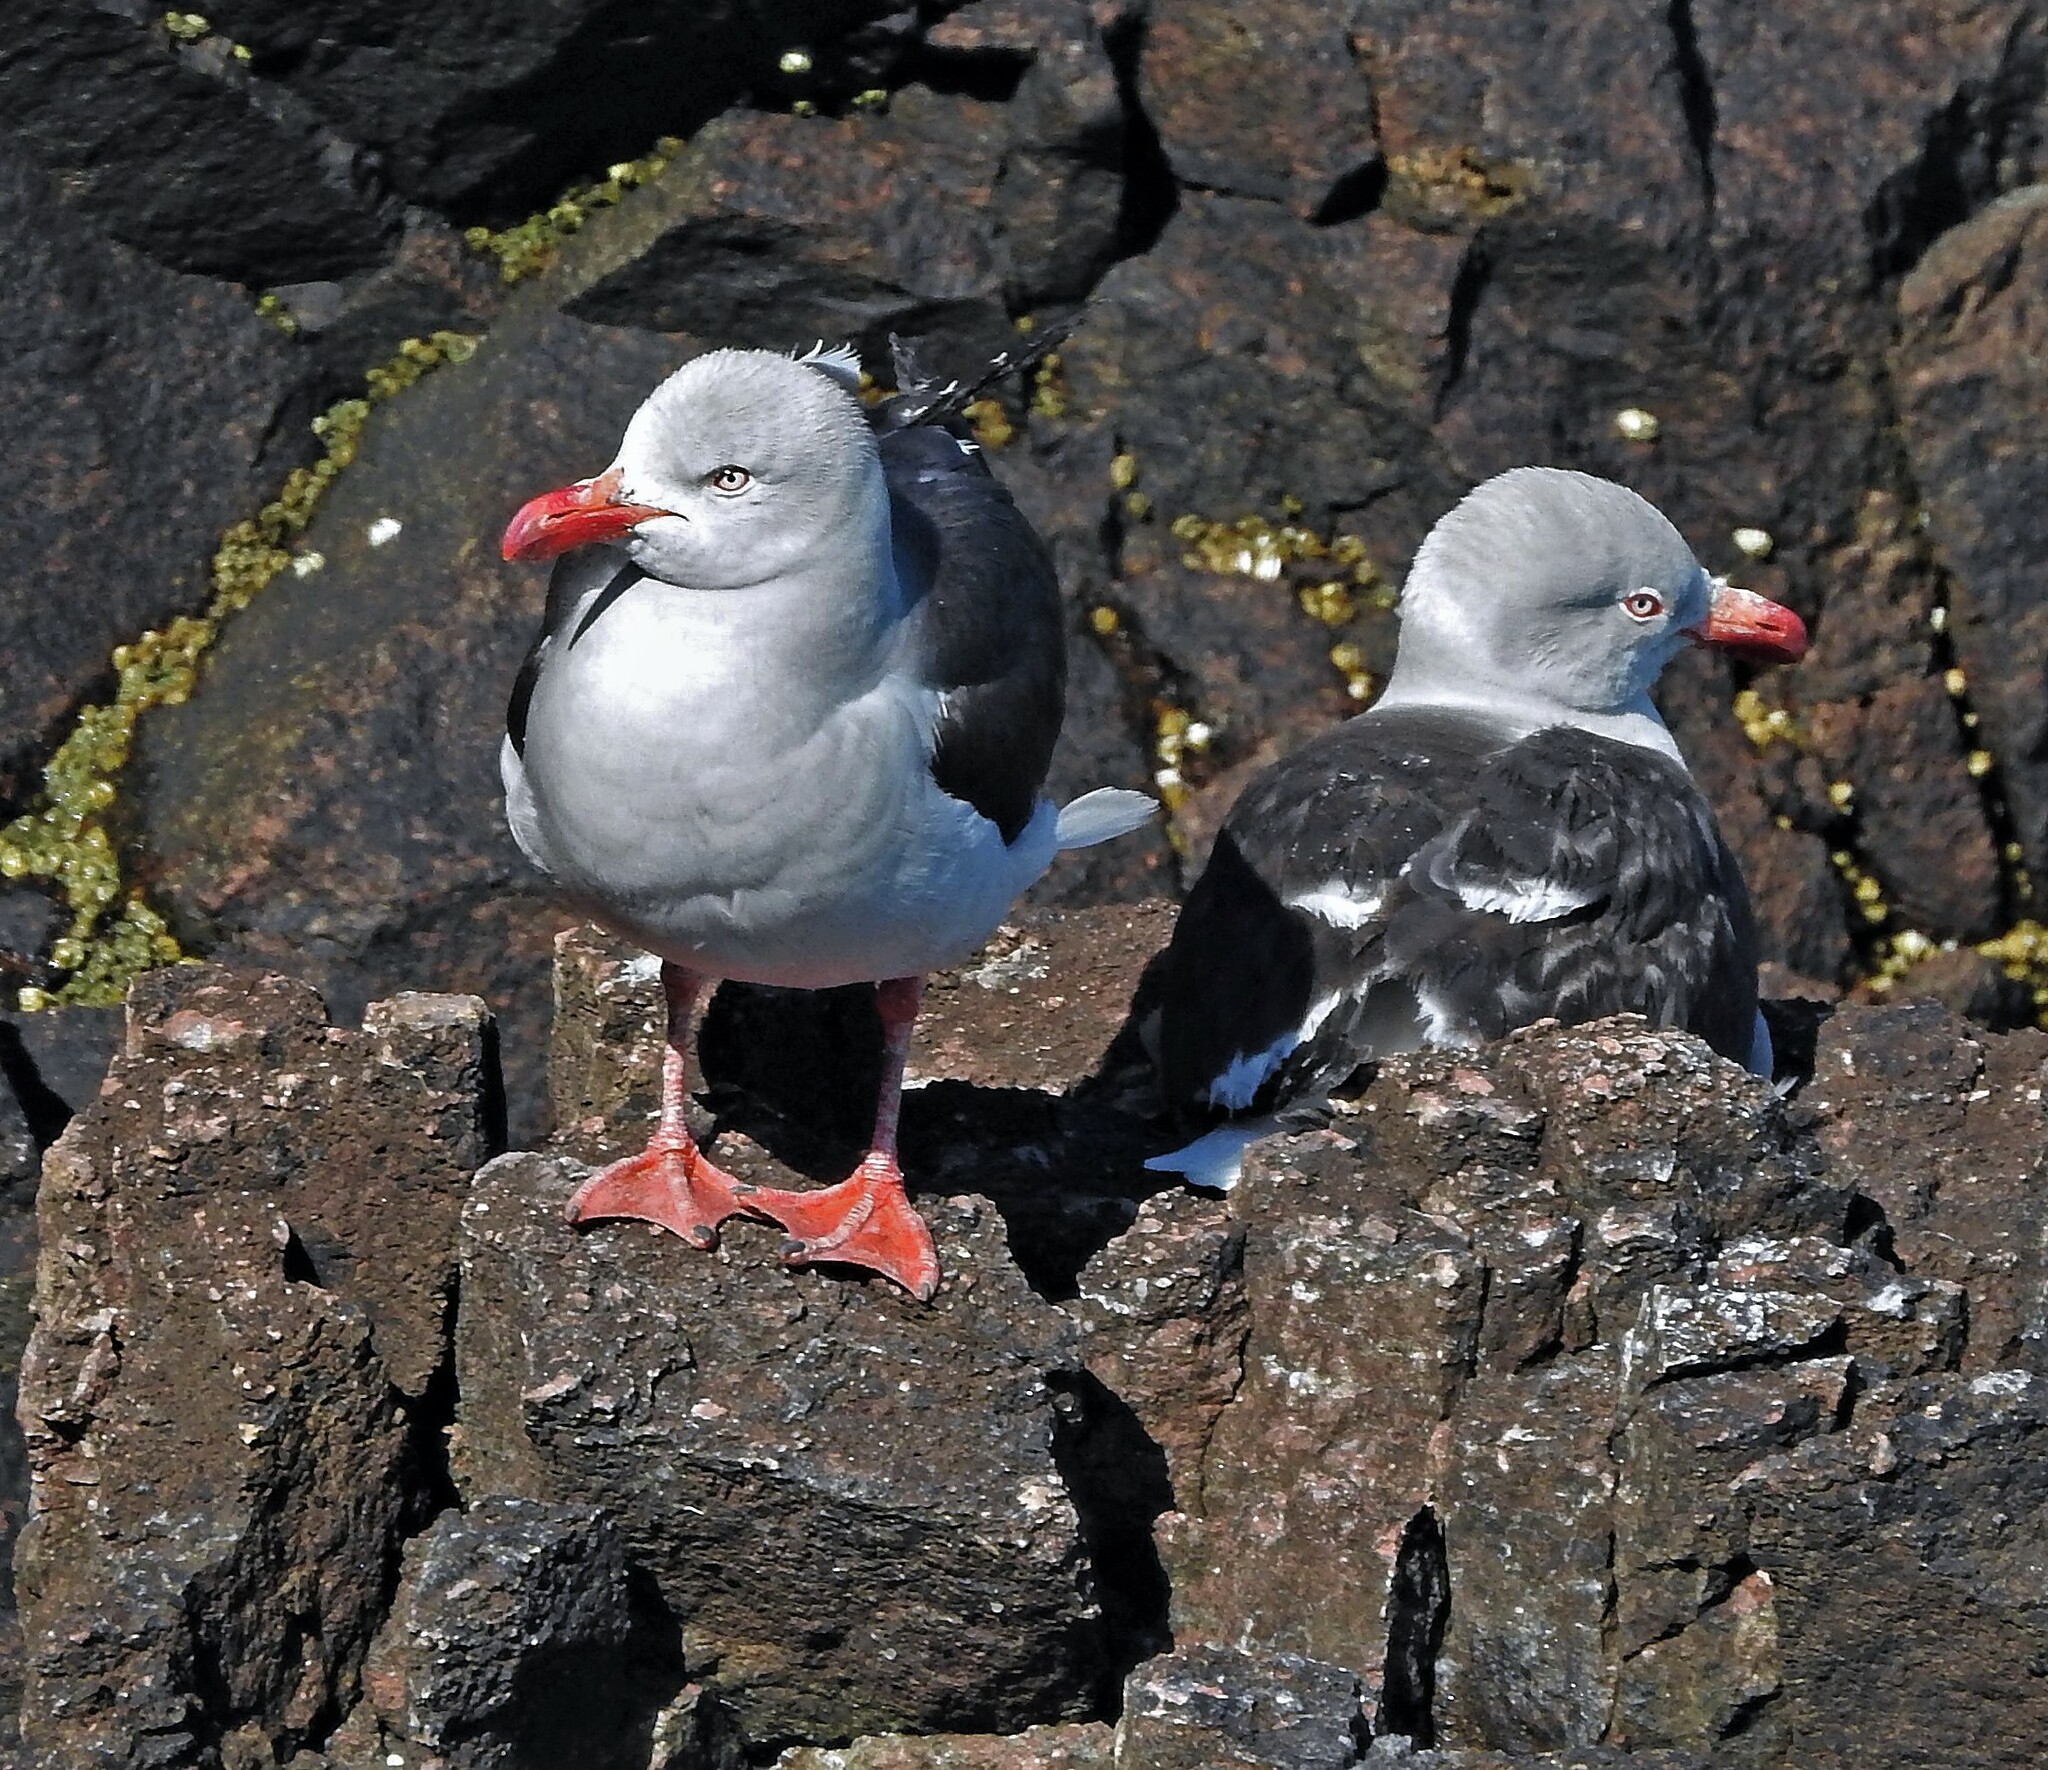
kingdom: Animalia
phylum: Chordata
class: Aves
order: Charadriiformes
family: Laridae
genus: Leucophaeus
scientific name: Leucophaeus scoresbii
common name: Dolphin gull
